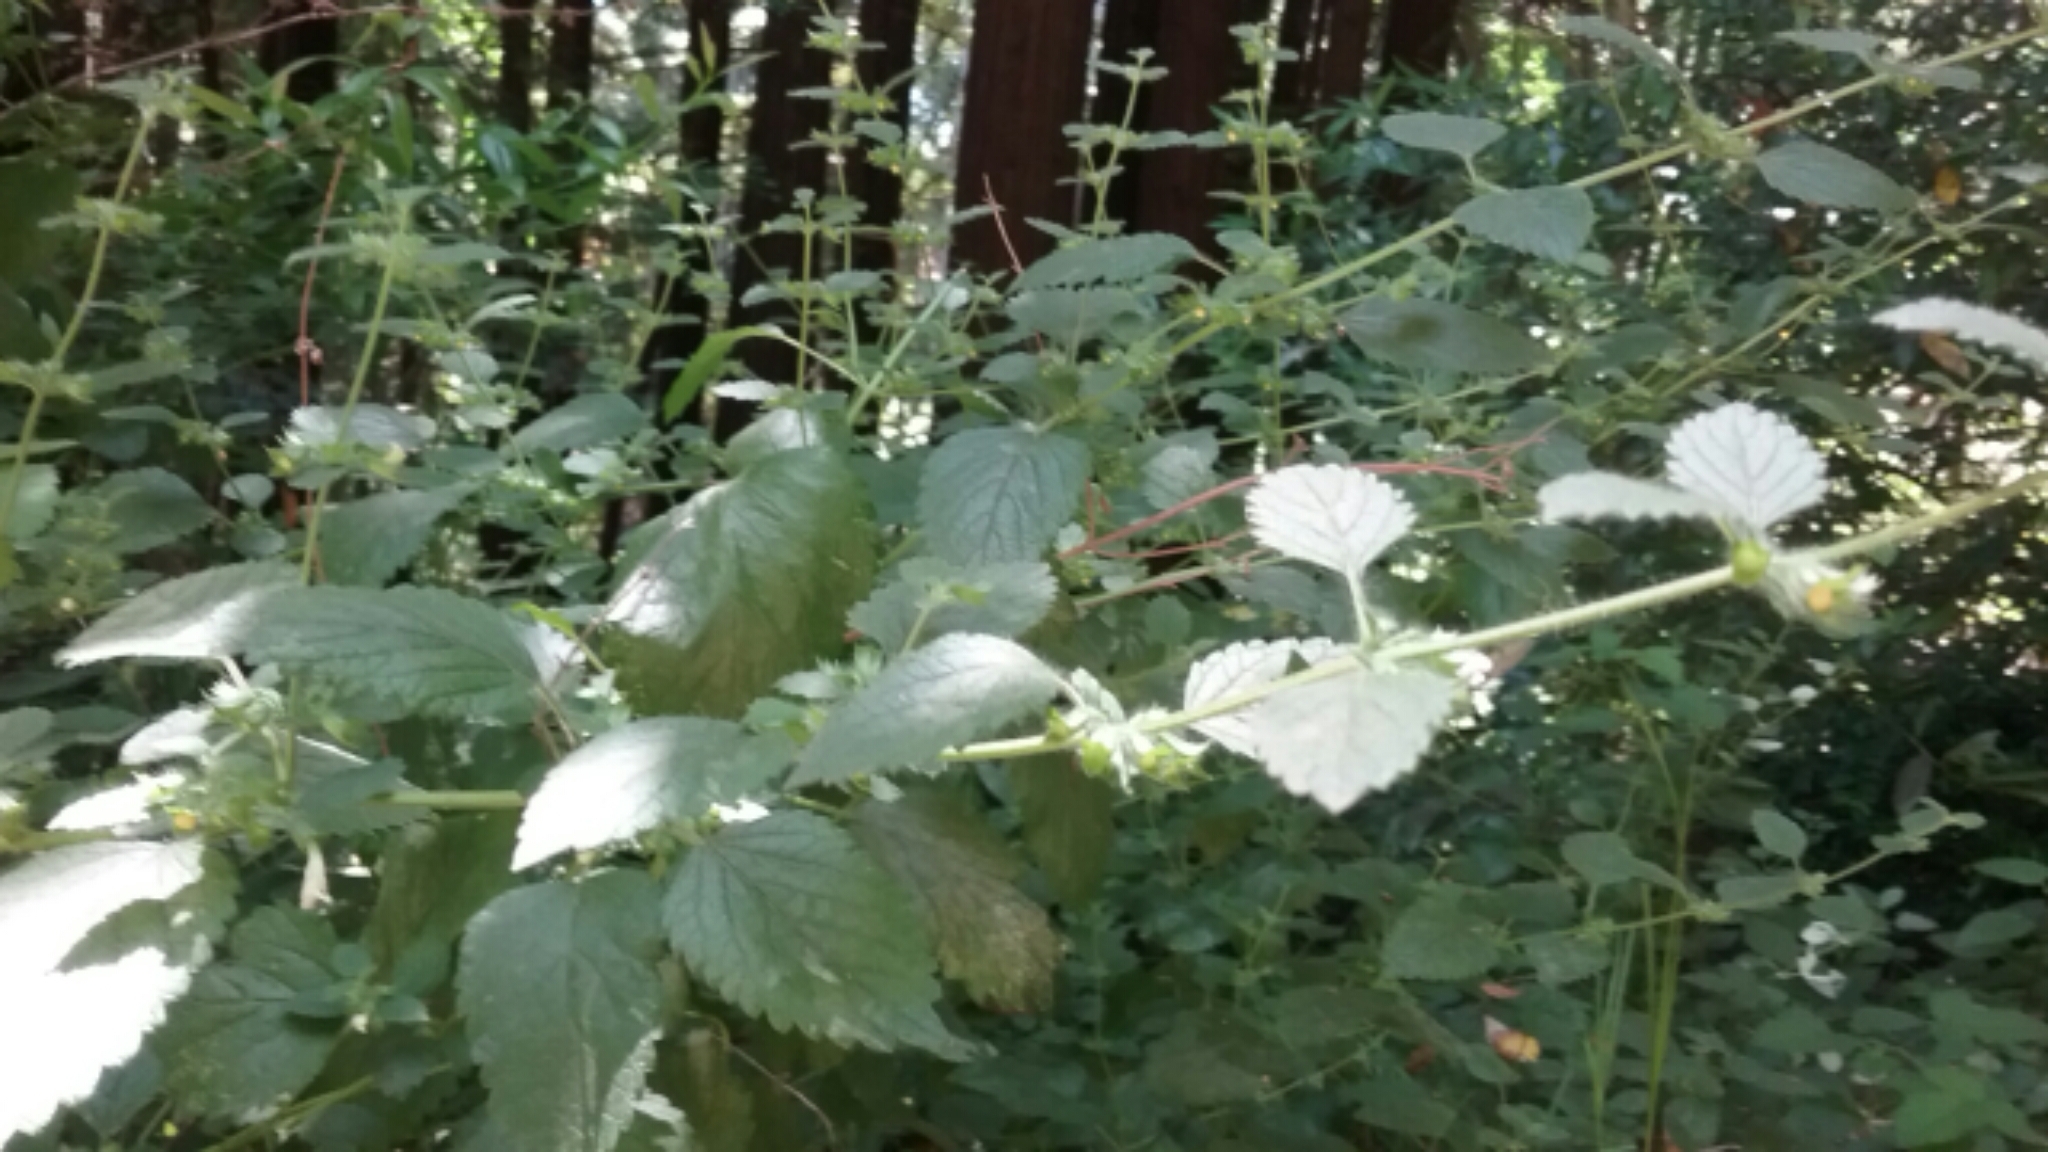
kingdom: Plantae
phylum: Tracheophyta
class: Magnoliopsida
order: Lamiales
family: Lamiaceae
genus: Melissa
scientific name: Melissa officinalis
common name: Balm
